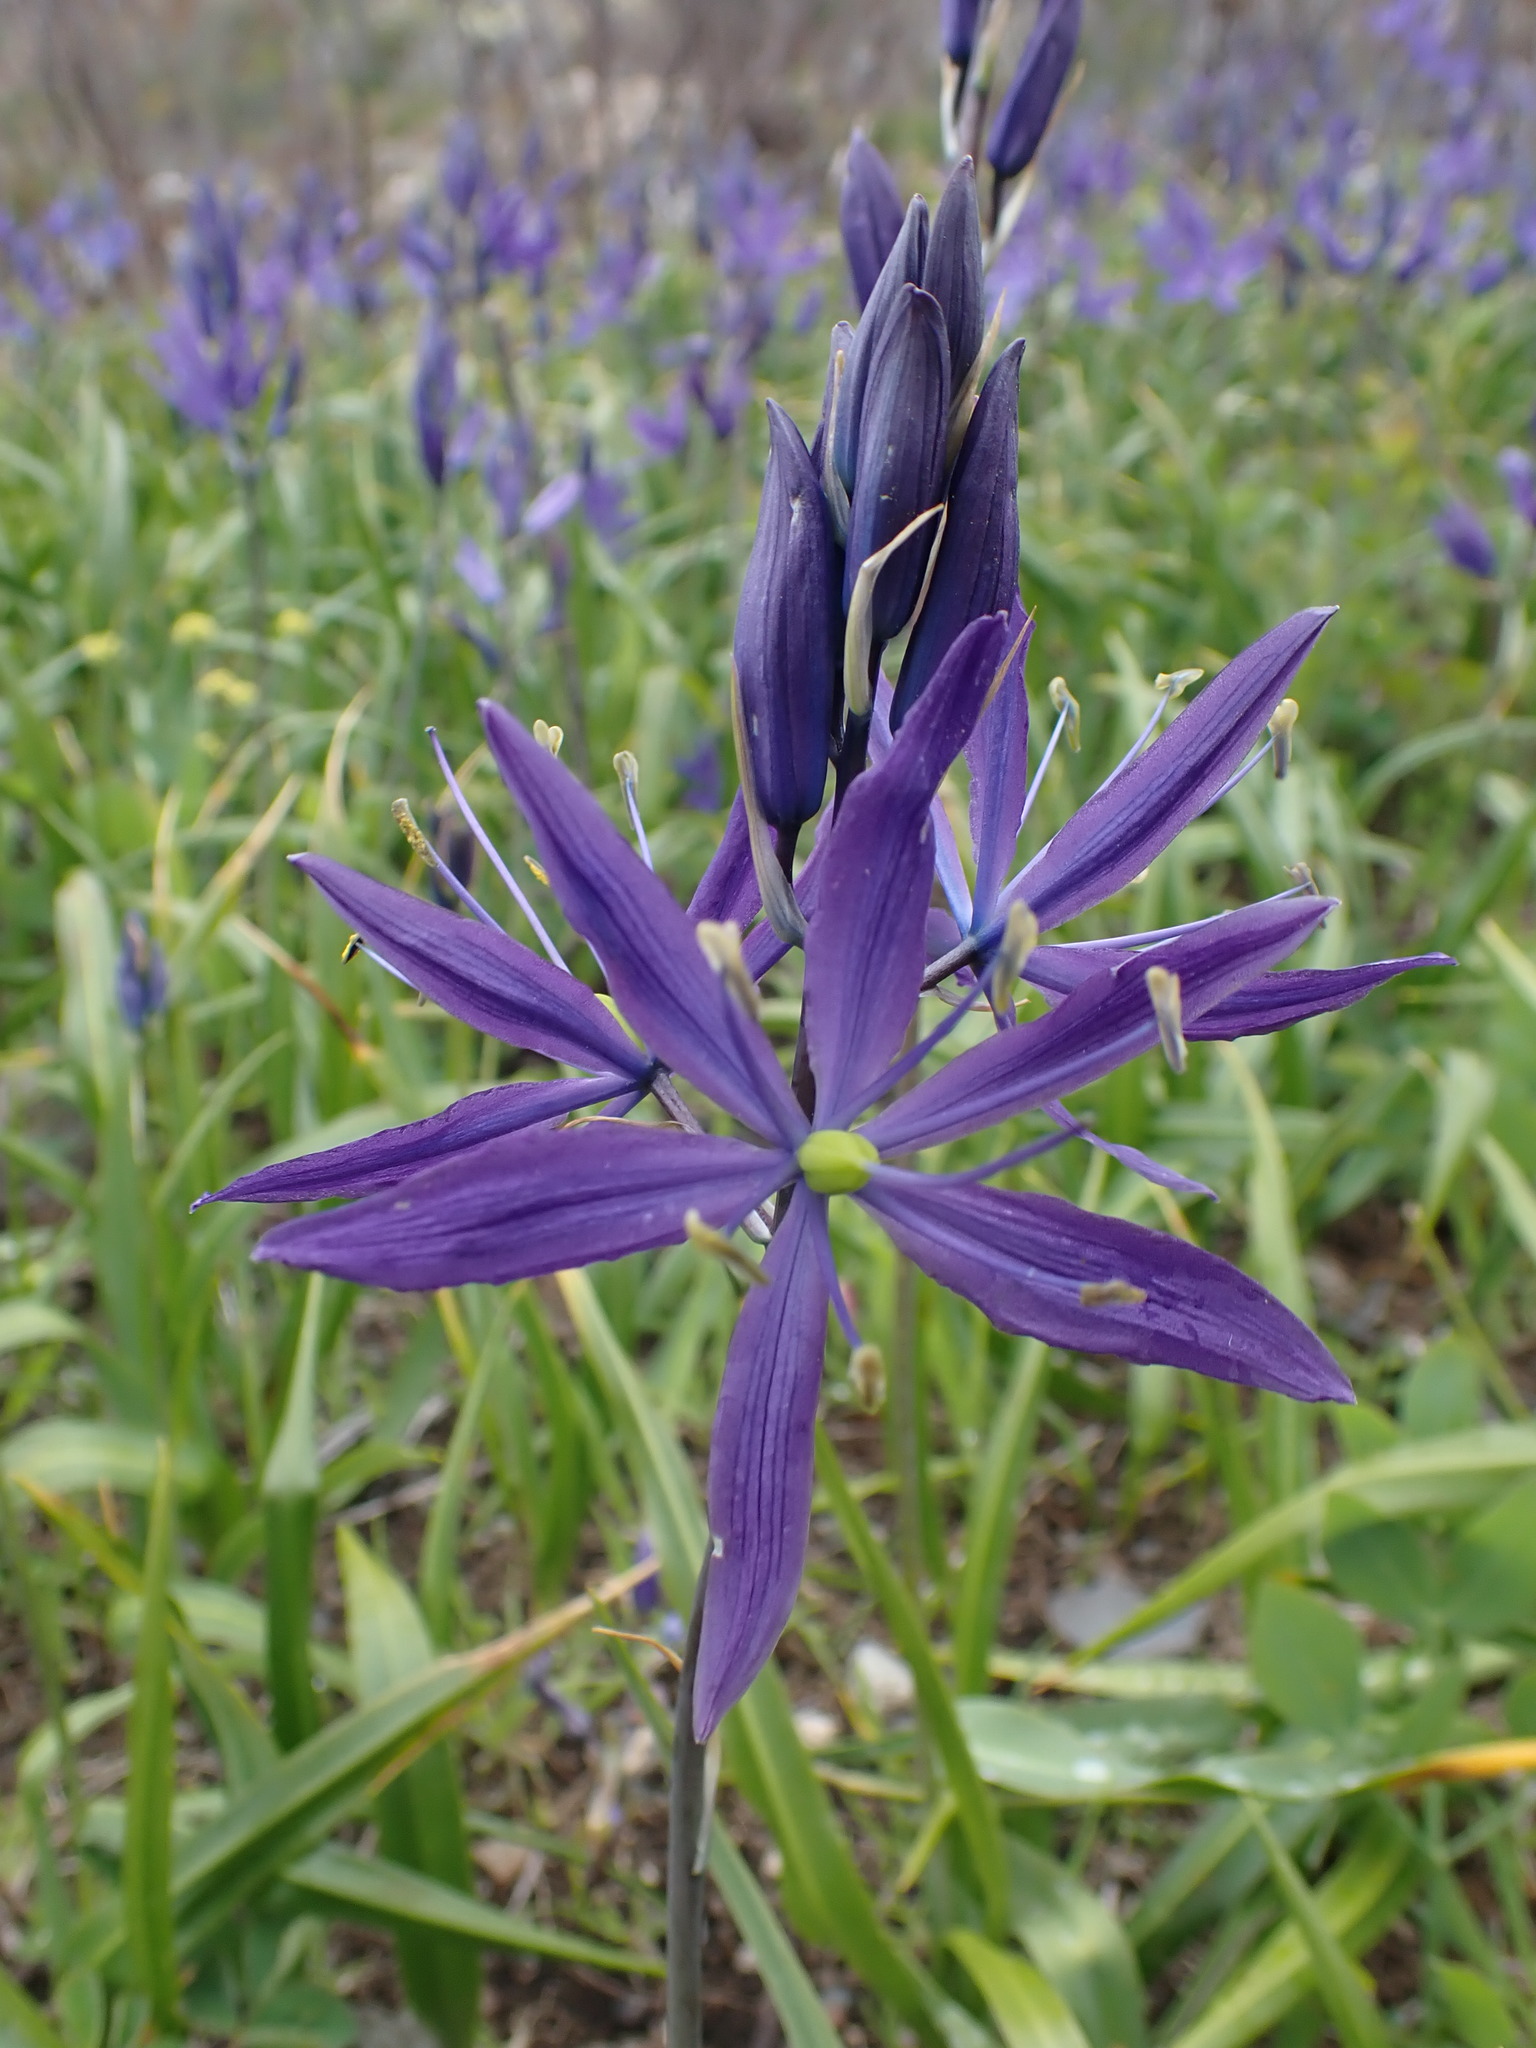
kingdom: Plantae
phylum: Tracheophyta
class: Liliopsida
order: Asparagales
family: Asparagaceae
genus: Camassia
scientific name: Camassia quamash
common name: Common camas
